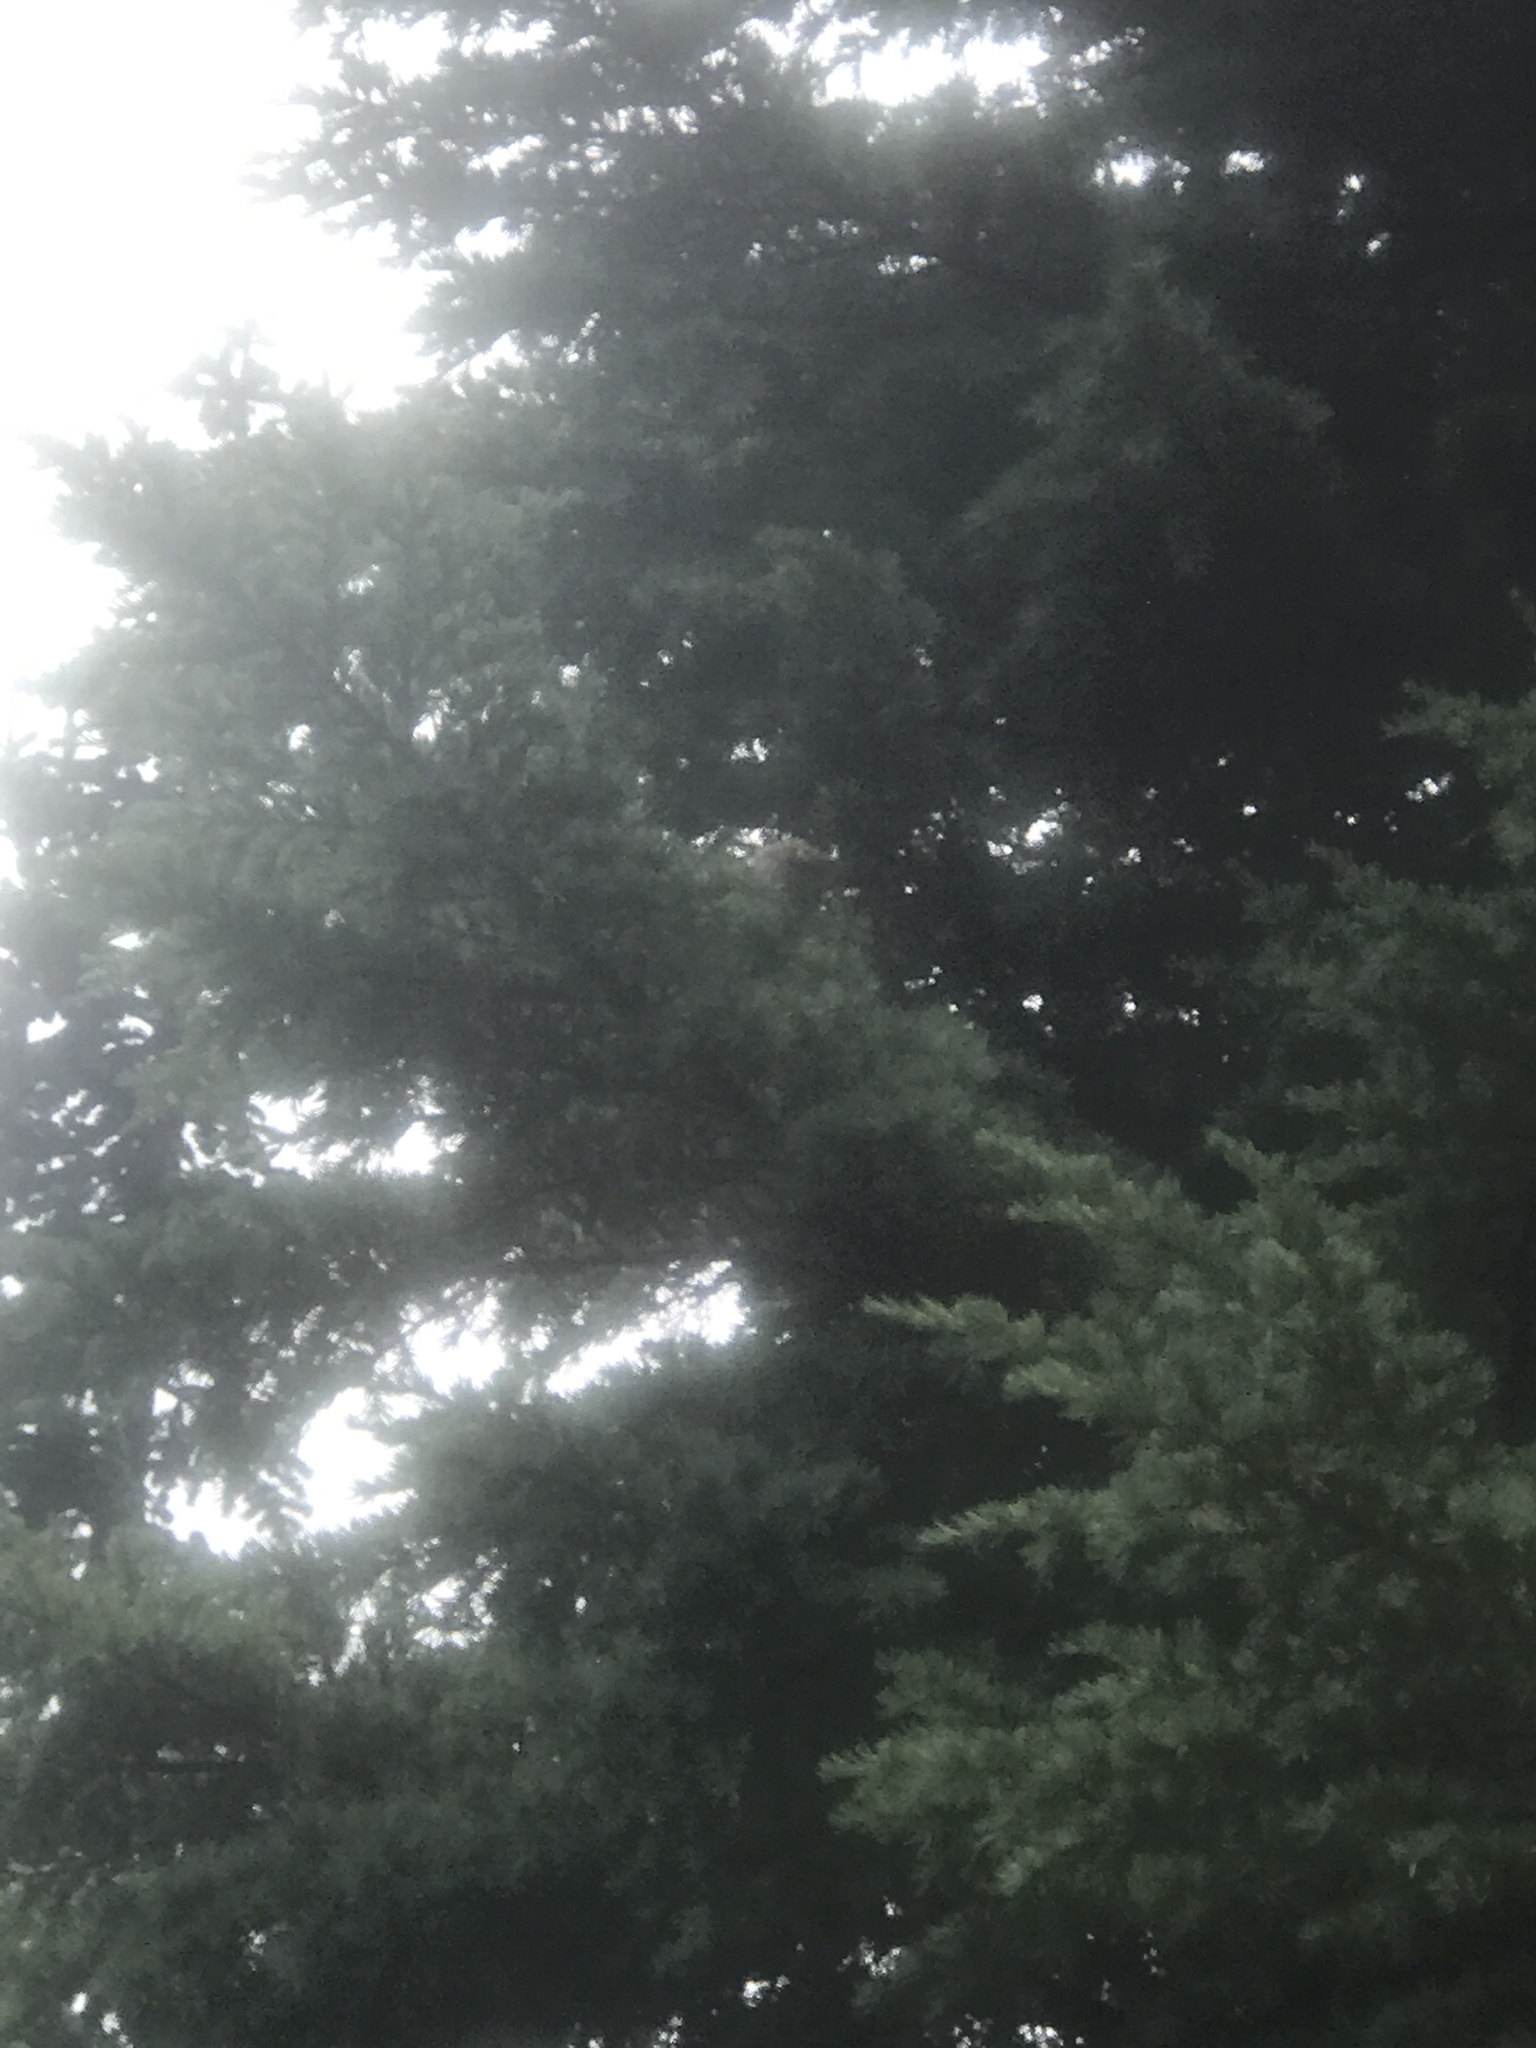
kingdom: Animalia
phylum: Chordata
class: Aves
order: Passeriformes
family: Paridae
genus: Poecile
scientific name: Poecile gambeli
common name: Mountain chickadee
